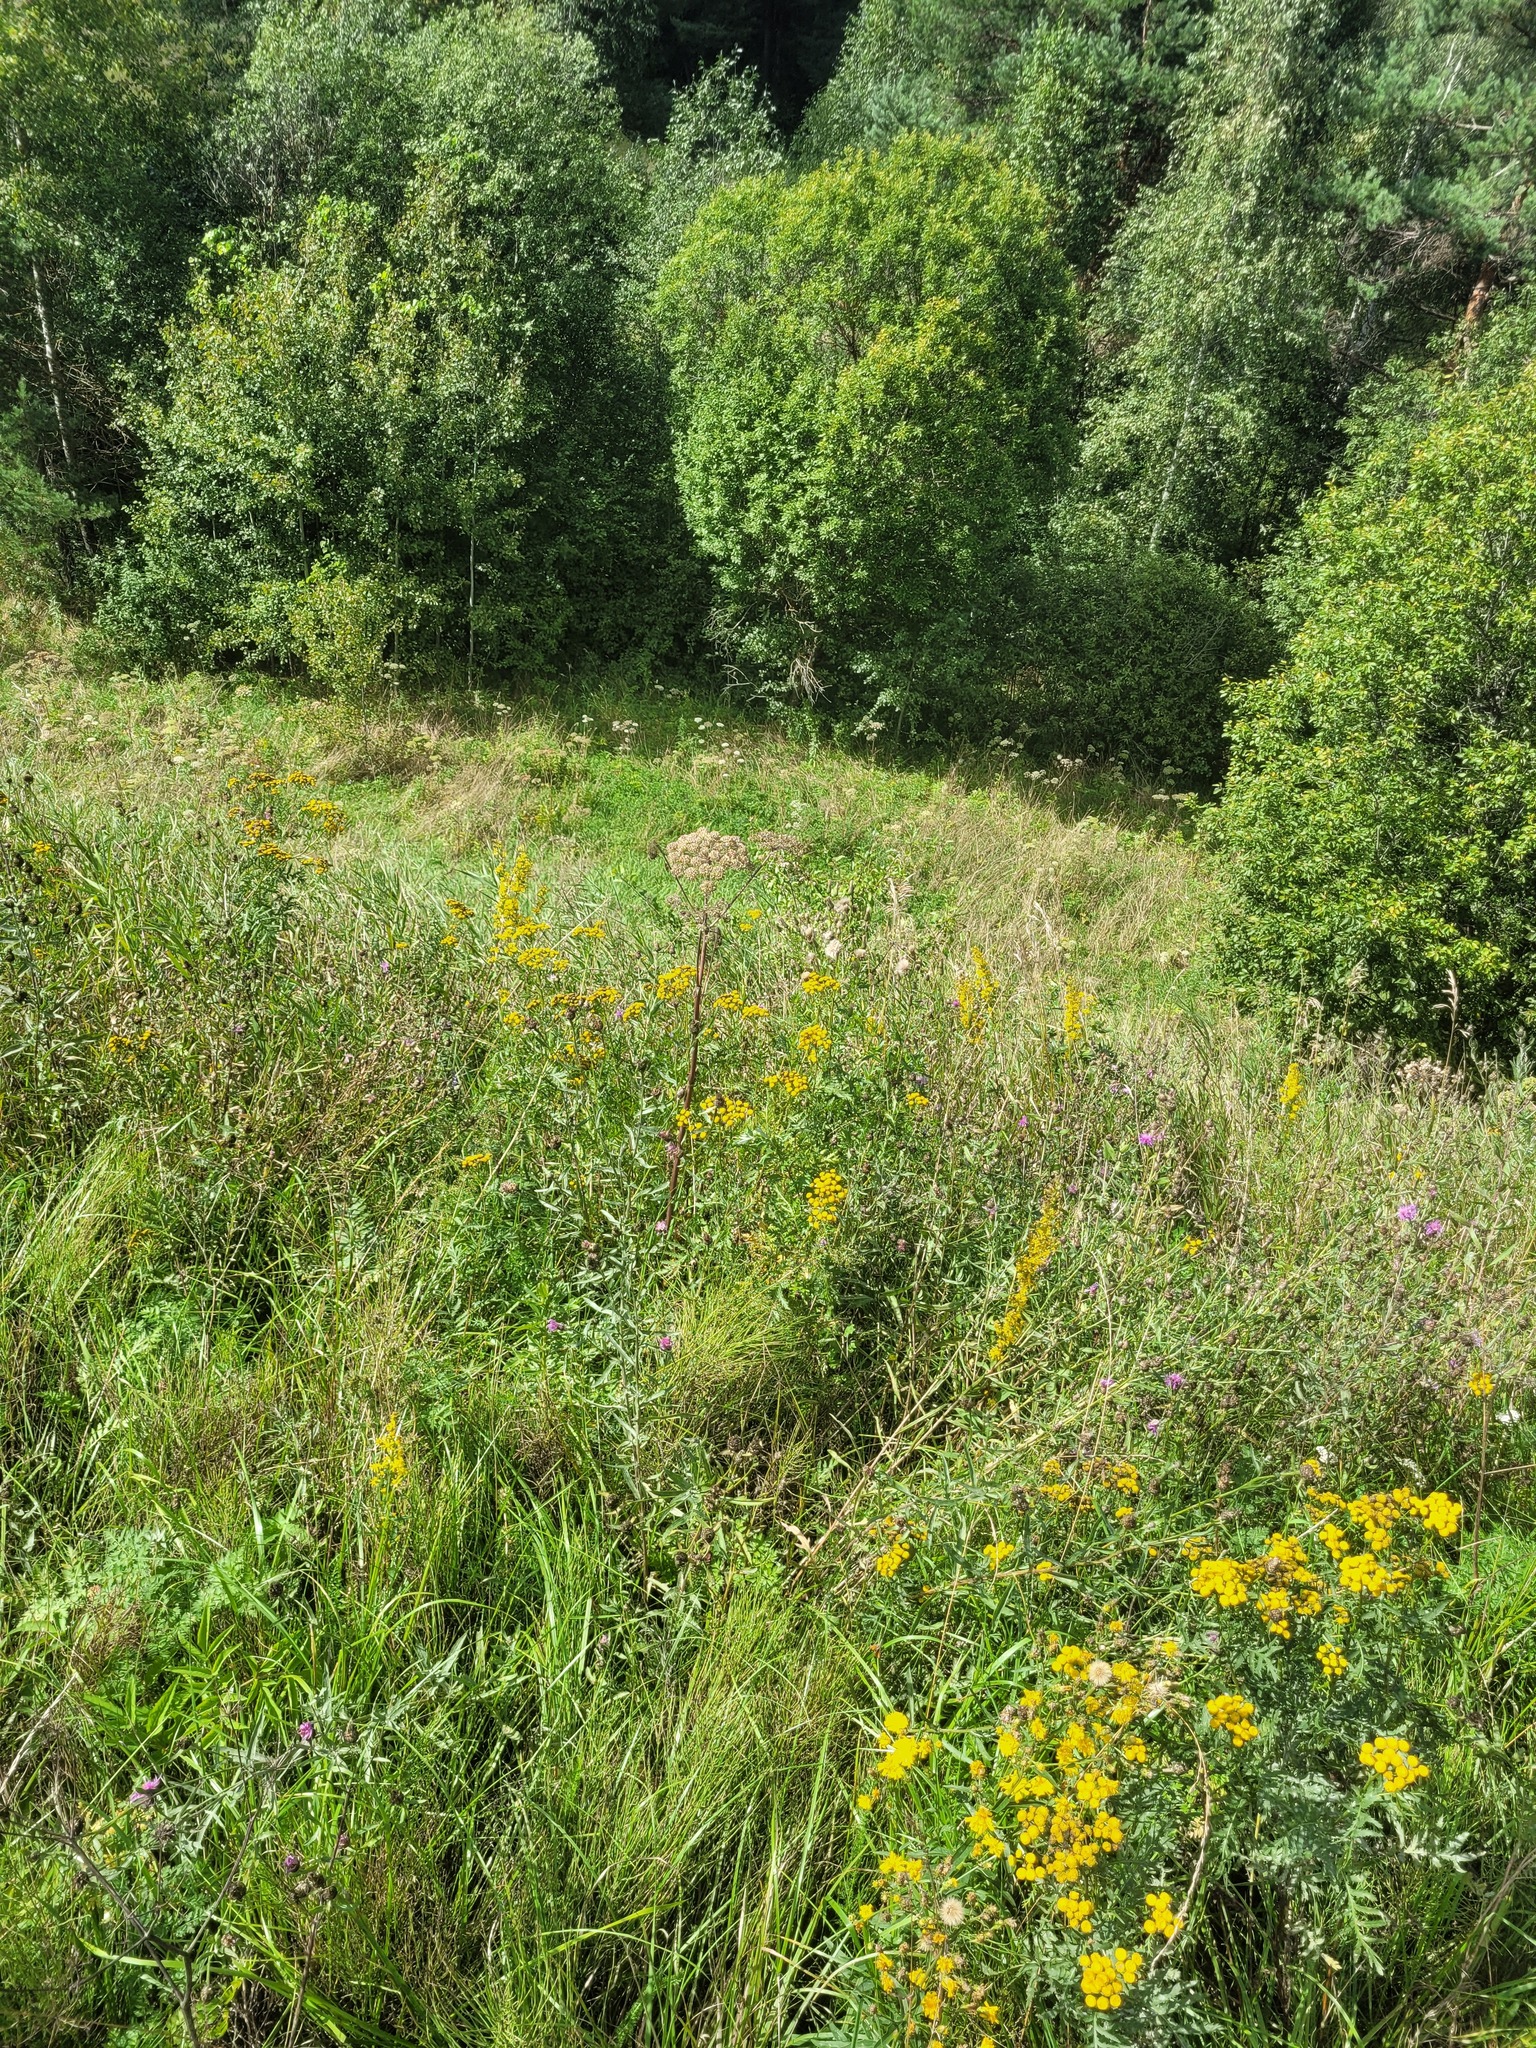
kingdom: Plantae
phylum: Tracheophyta
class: Magnoliopsida
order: Apiales
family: Apiaceae
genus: Angelica
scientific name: Angelica sylvestris
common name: Wild angelica
